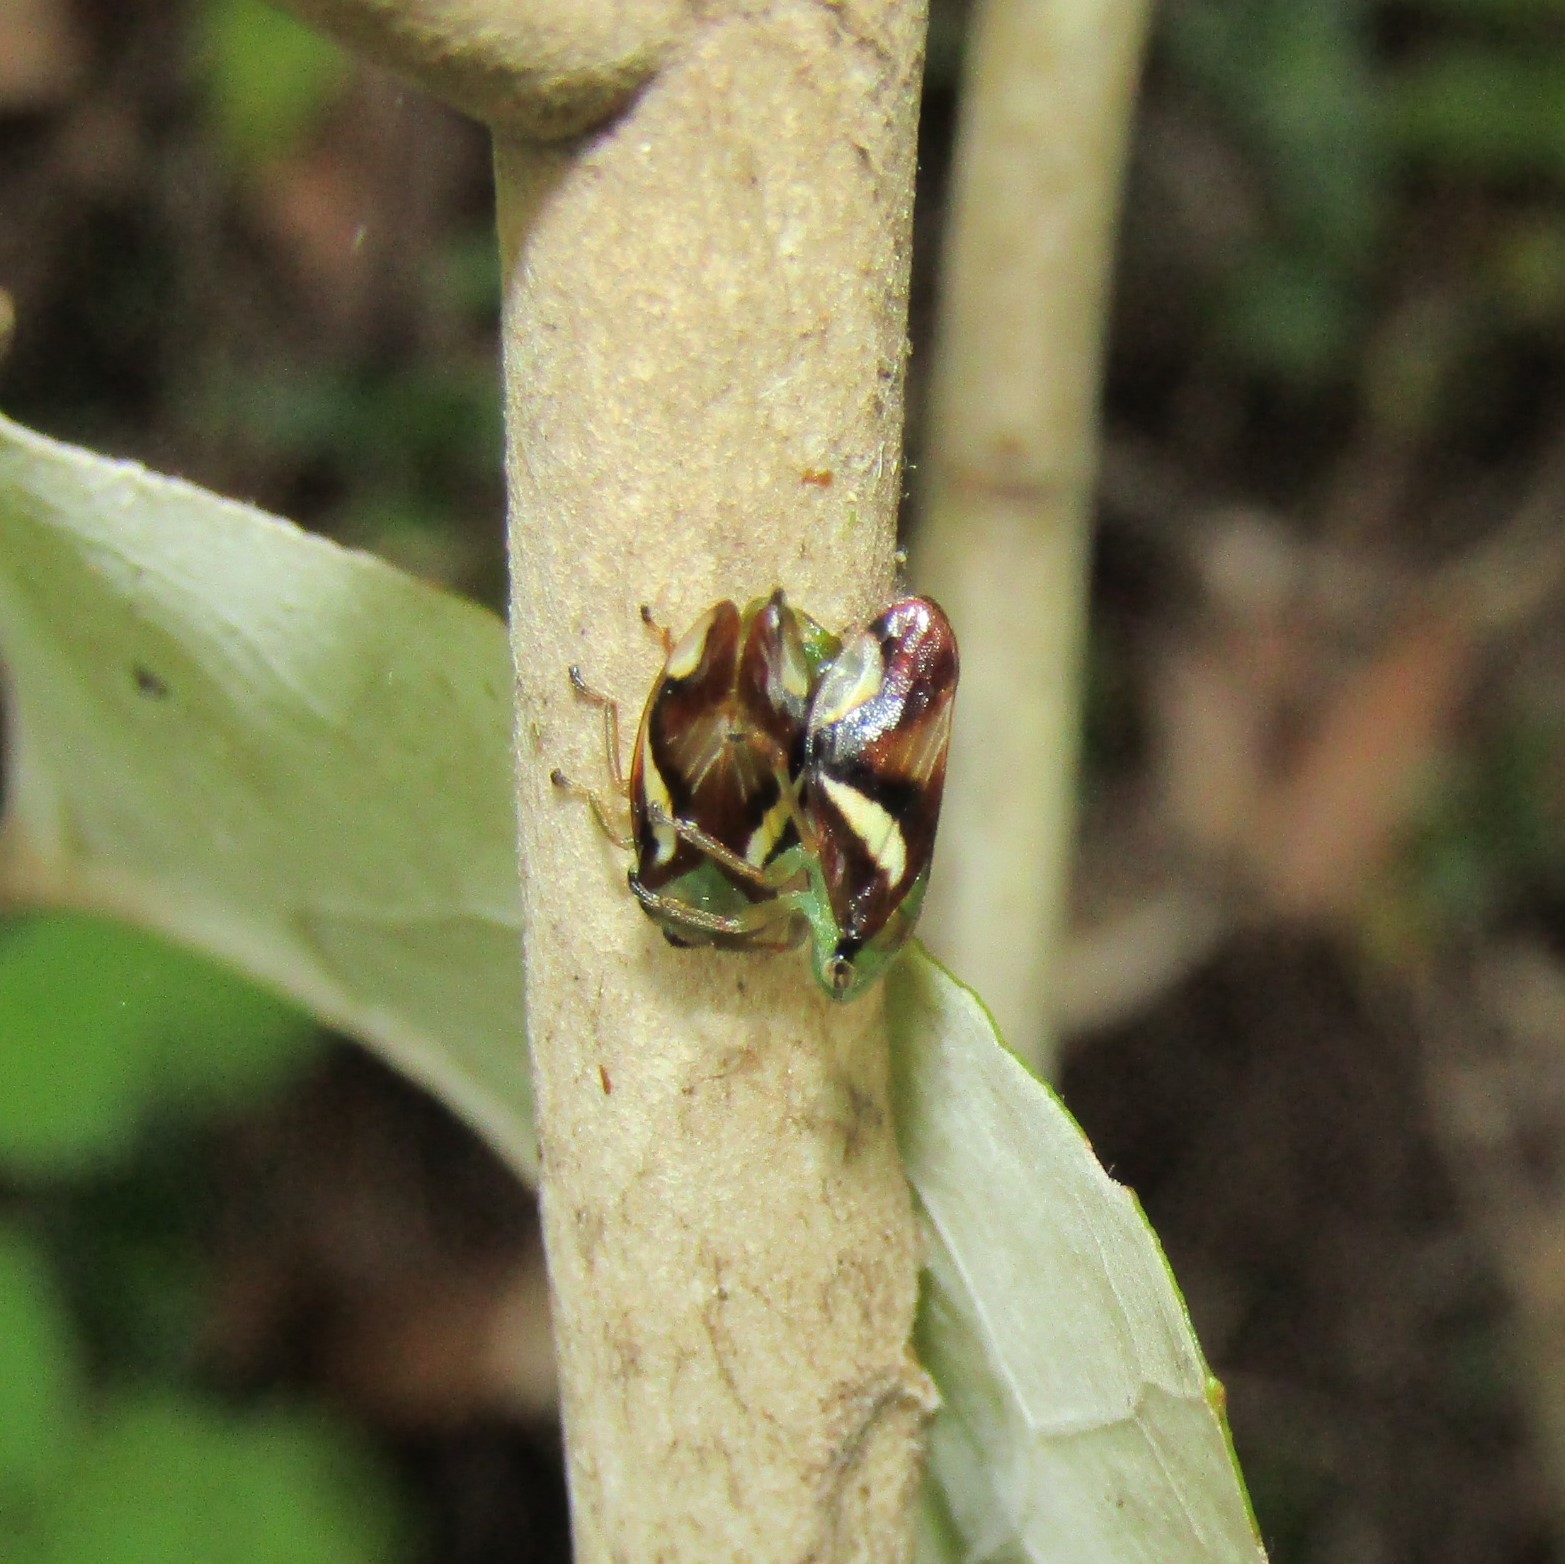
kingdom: Animalia
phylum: Arthropoda
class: Insecta
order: Hemiptera
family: Aphrophoridae
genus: Carystoterpa
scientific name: Carystoterpa fingens
